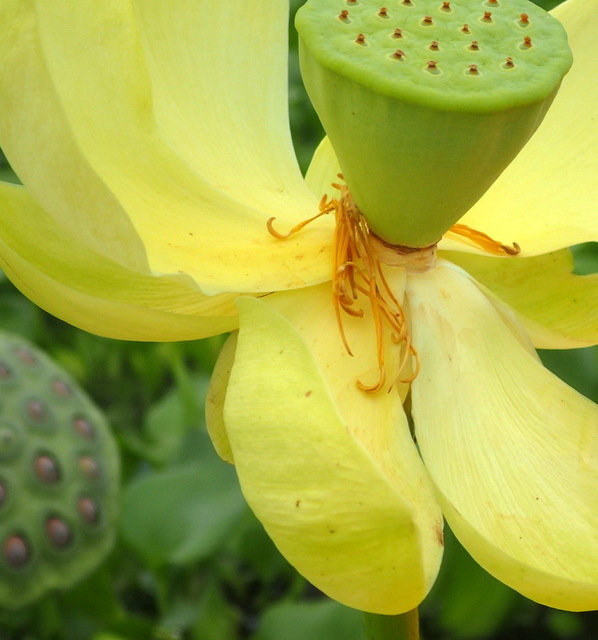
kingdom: Plantae
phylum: Tracheophyta
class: Magnoliopsida
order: Proteales
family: Nelumbonaceae
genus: Nelumbo
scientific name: Nelumbo lutea
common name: American lotus
